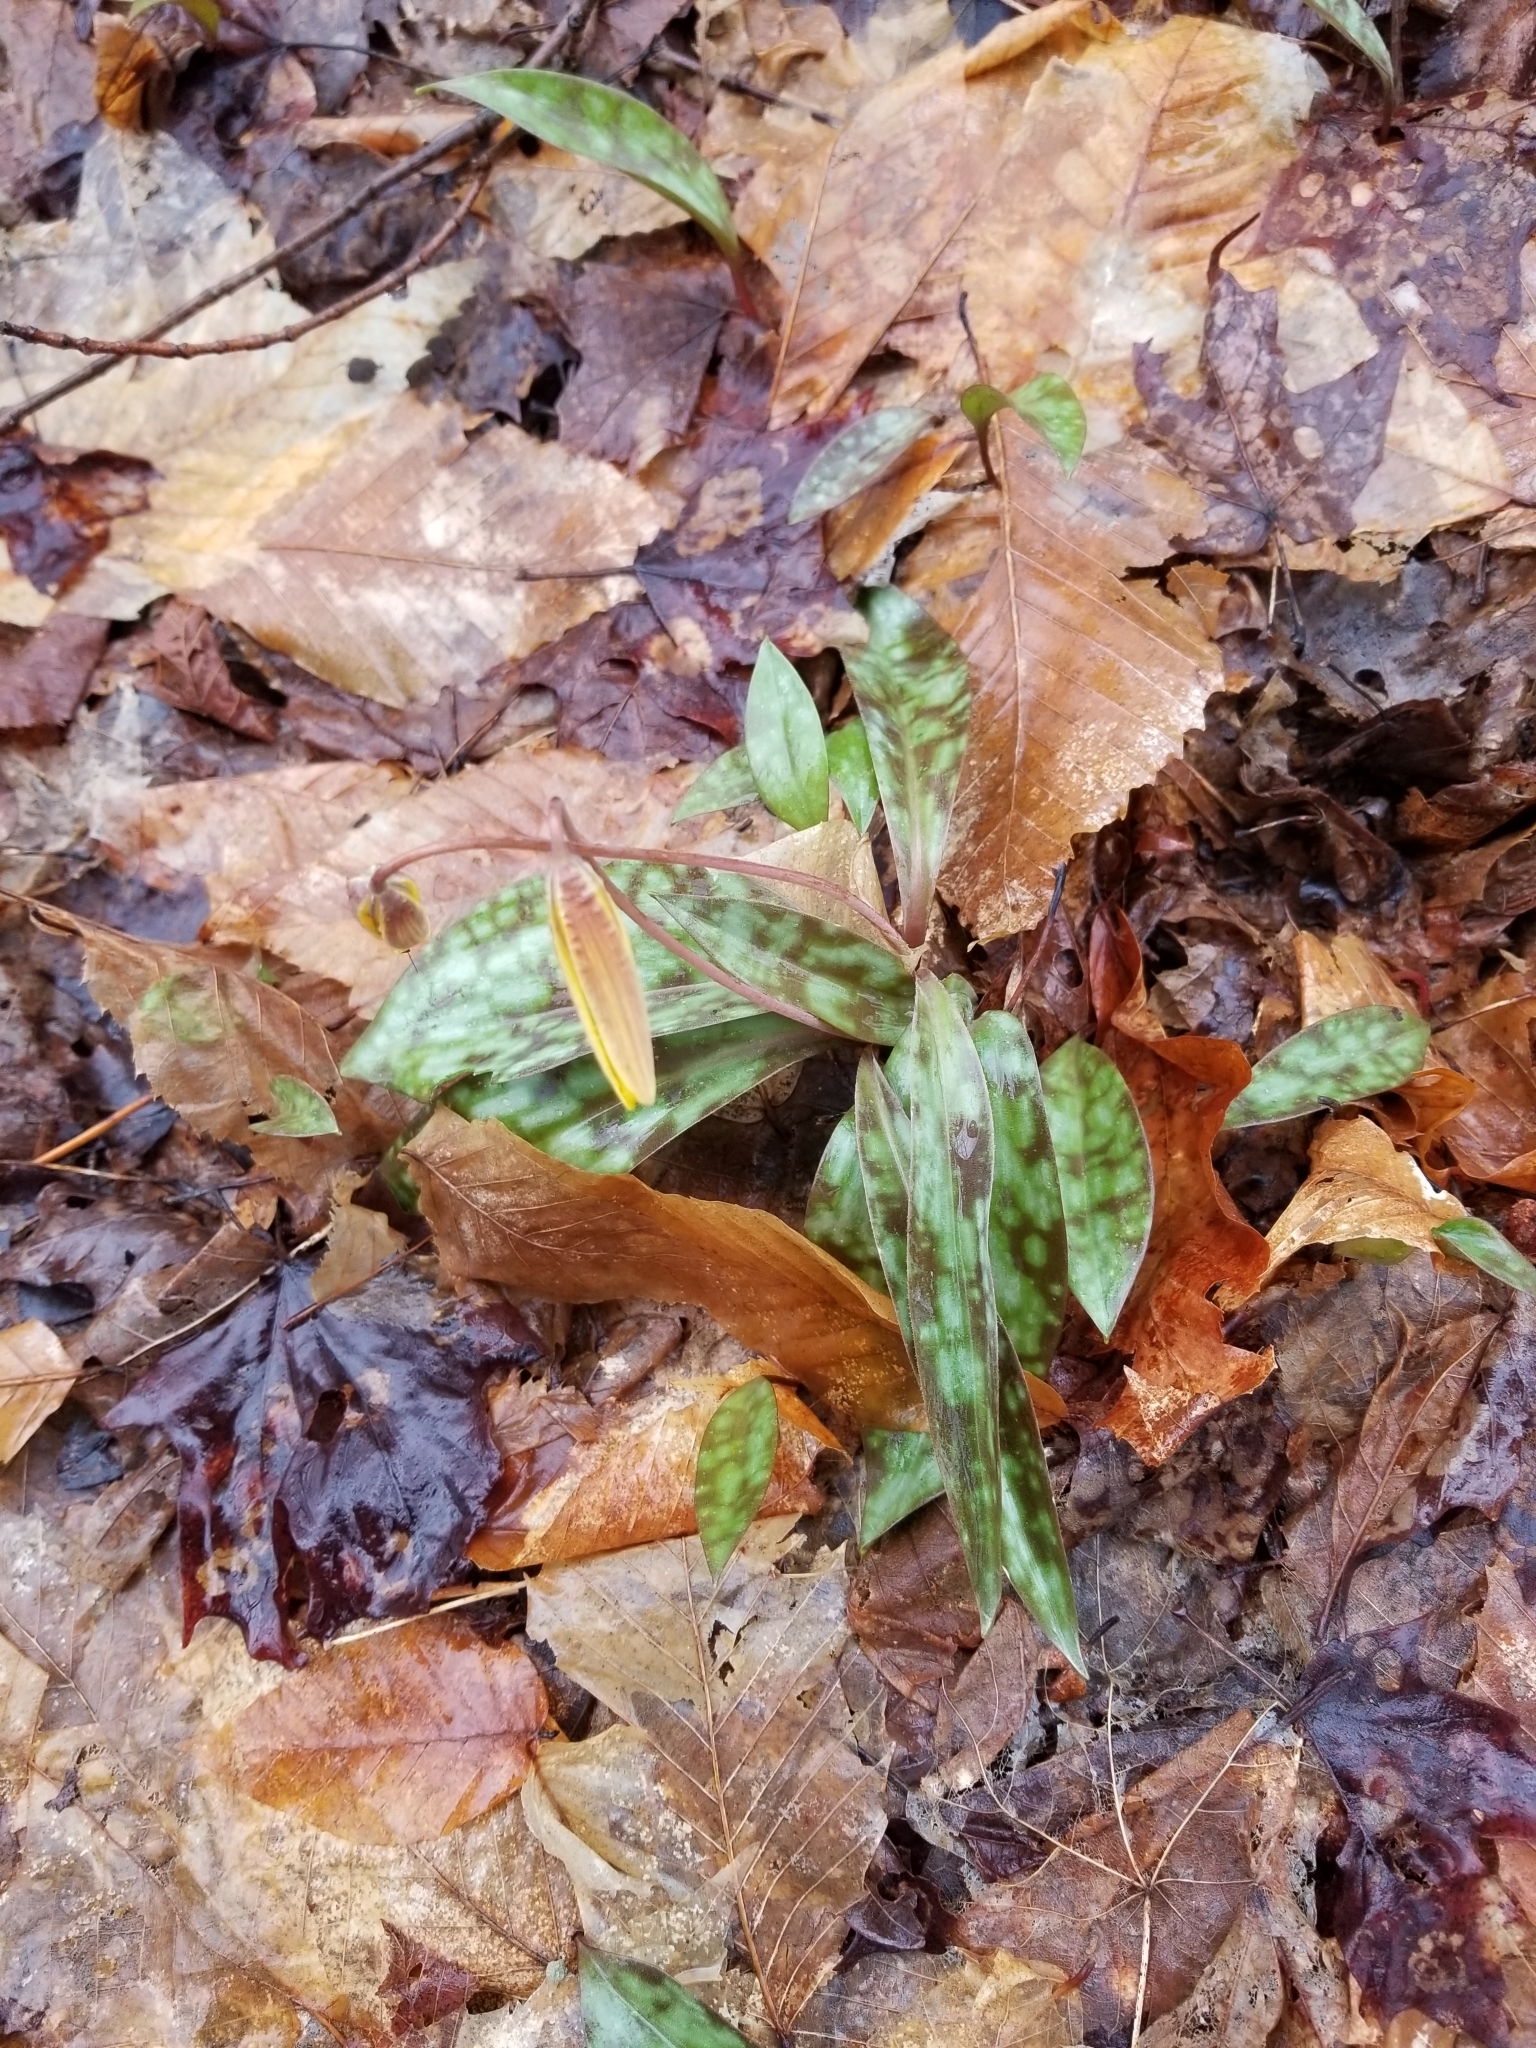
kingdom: Plantae
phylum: Tracheophyta
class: Liliopsida
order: Liliales
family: Liliaceae
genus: Erythronium
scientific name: Erythronium americanum
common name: Yellow adder's-tongue
